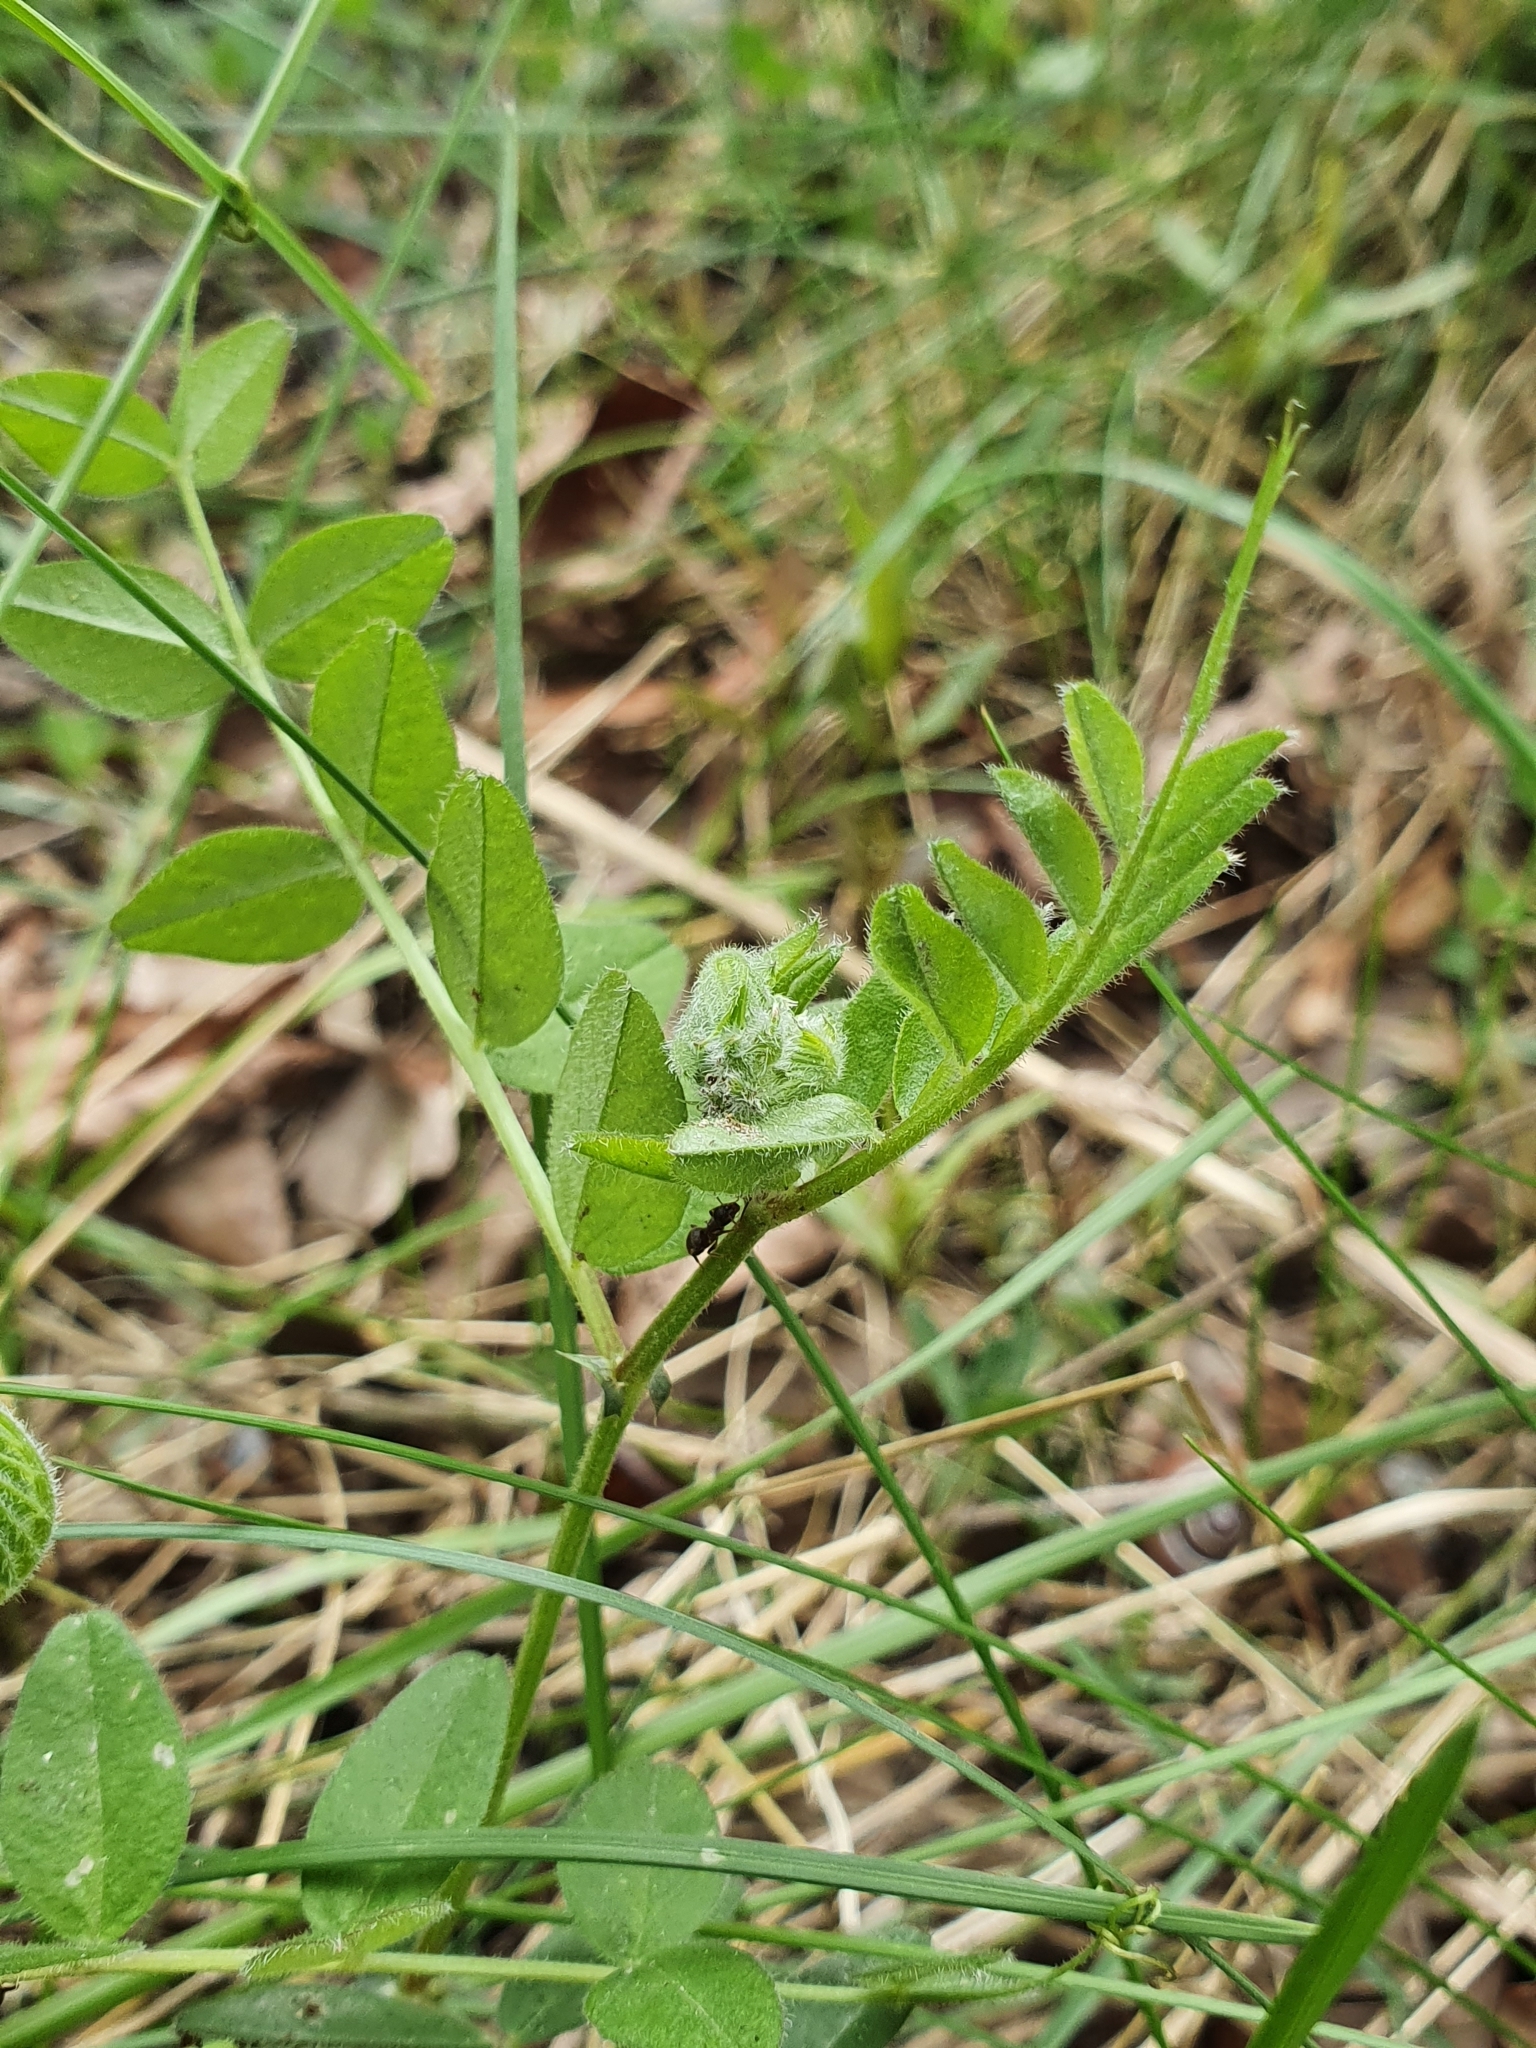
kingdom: Plantae
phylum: Tracheophyta
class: Magnoliopsida
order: Fabales
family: Fabaceae
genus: Vicia
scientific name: Vicia sepium
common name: Bush vetch
